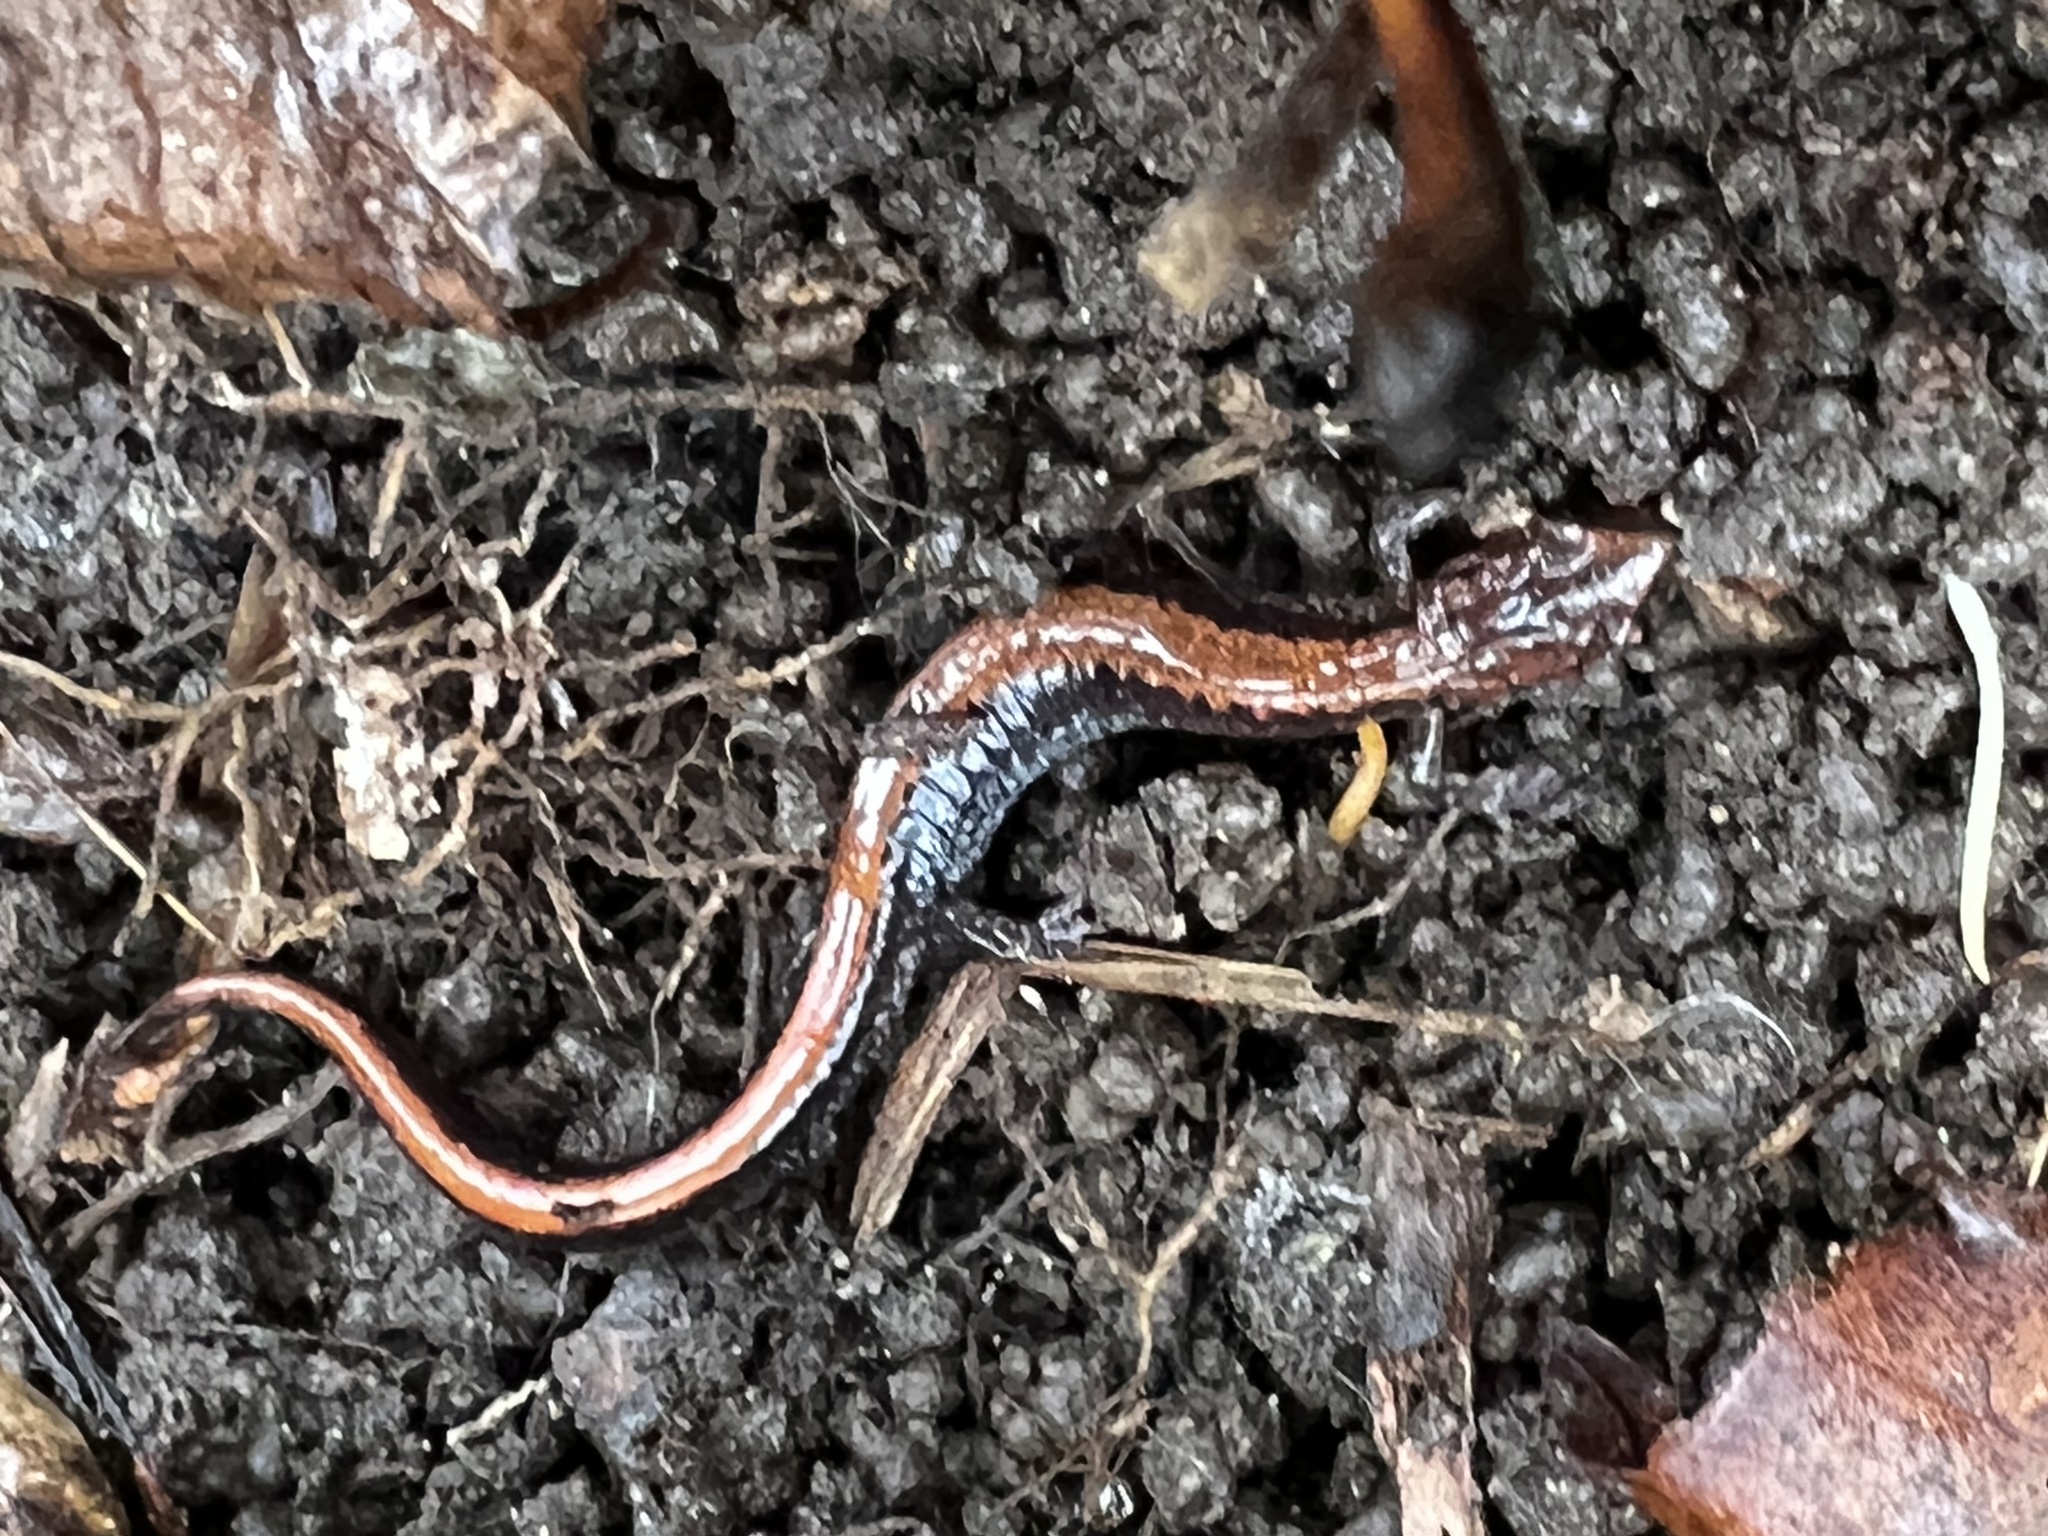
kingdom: Animalia
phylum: Chordata
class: Amphibia
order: Caudata
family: Plethodontidae
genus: Plethodon
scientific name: Plethodon cinereus
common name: Redback salamander
